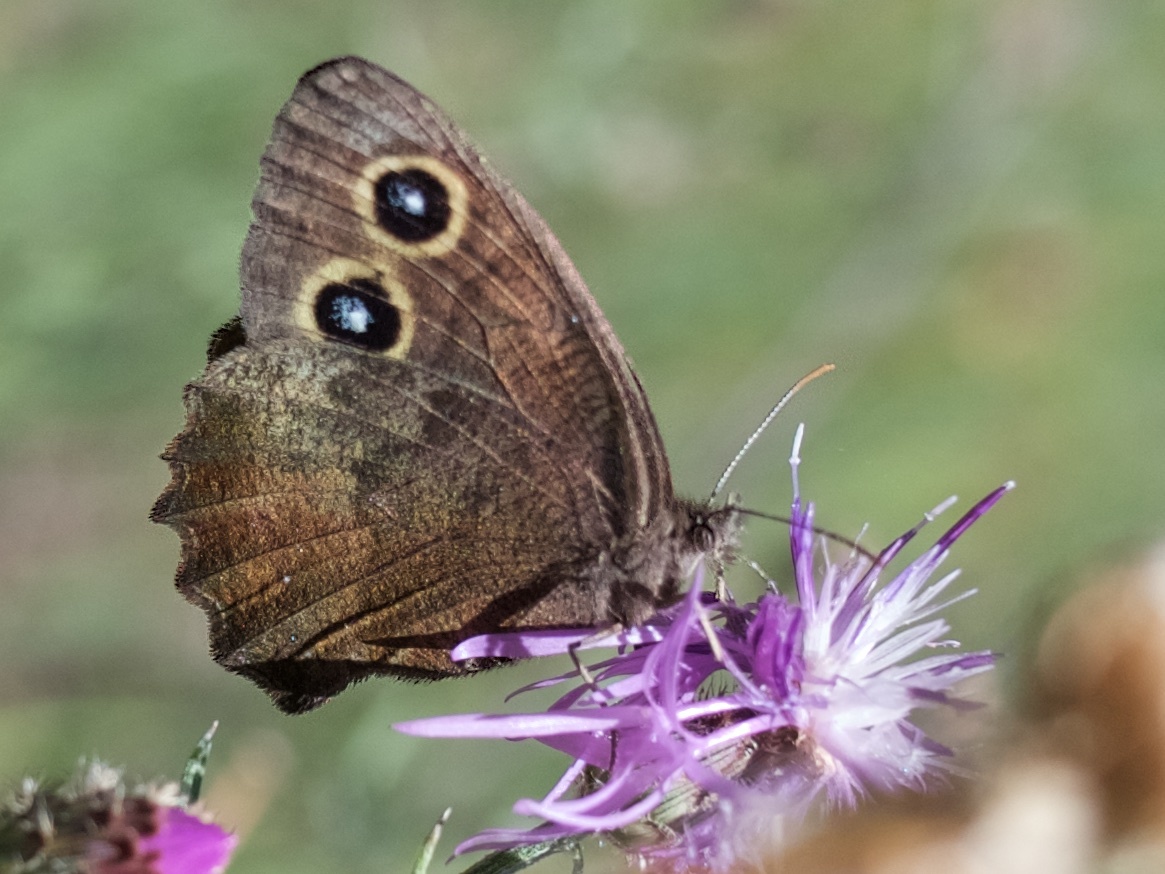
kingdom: Animalia
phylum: Arthropoda
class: Insecta
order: Lepidoptera
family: Nymphalidae
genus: Cercyonis
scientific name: Cercyonis pegala
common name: Common wood-nymph
